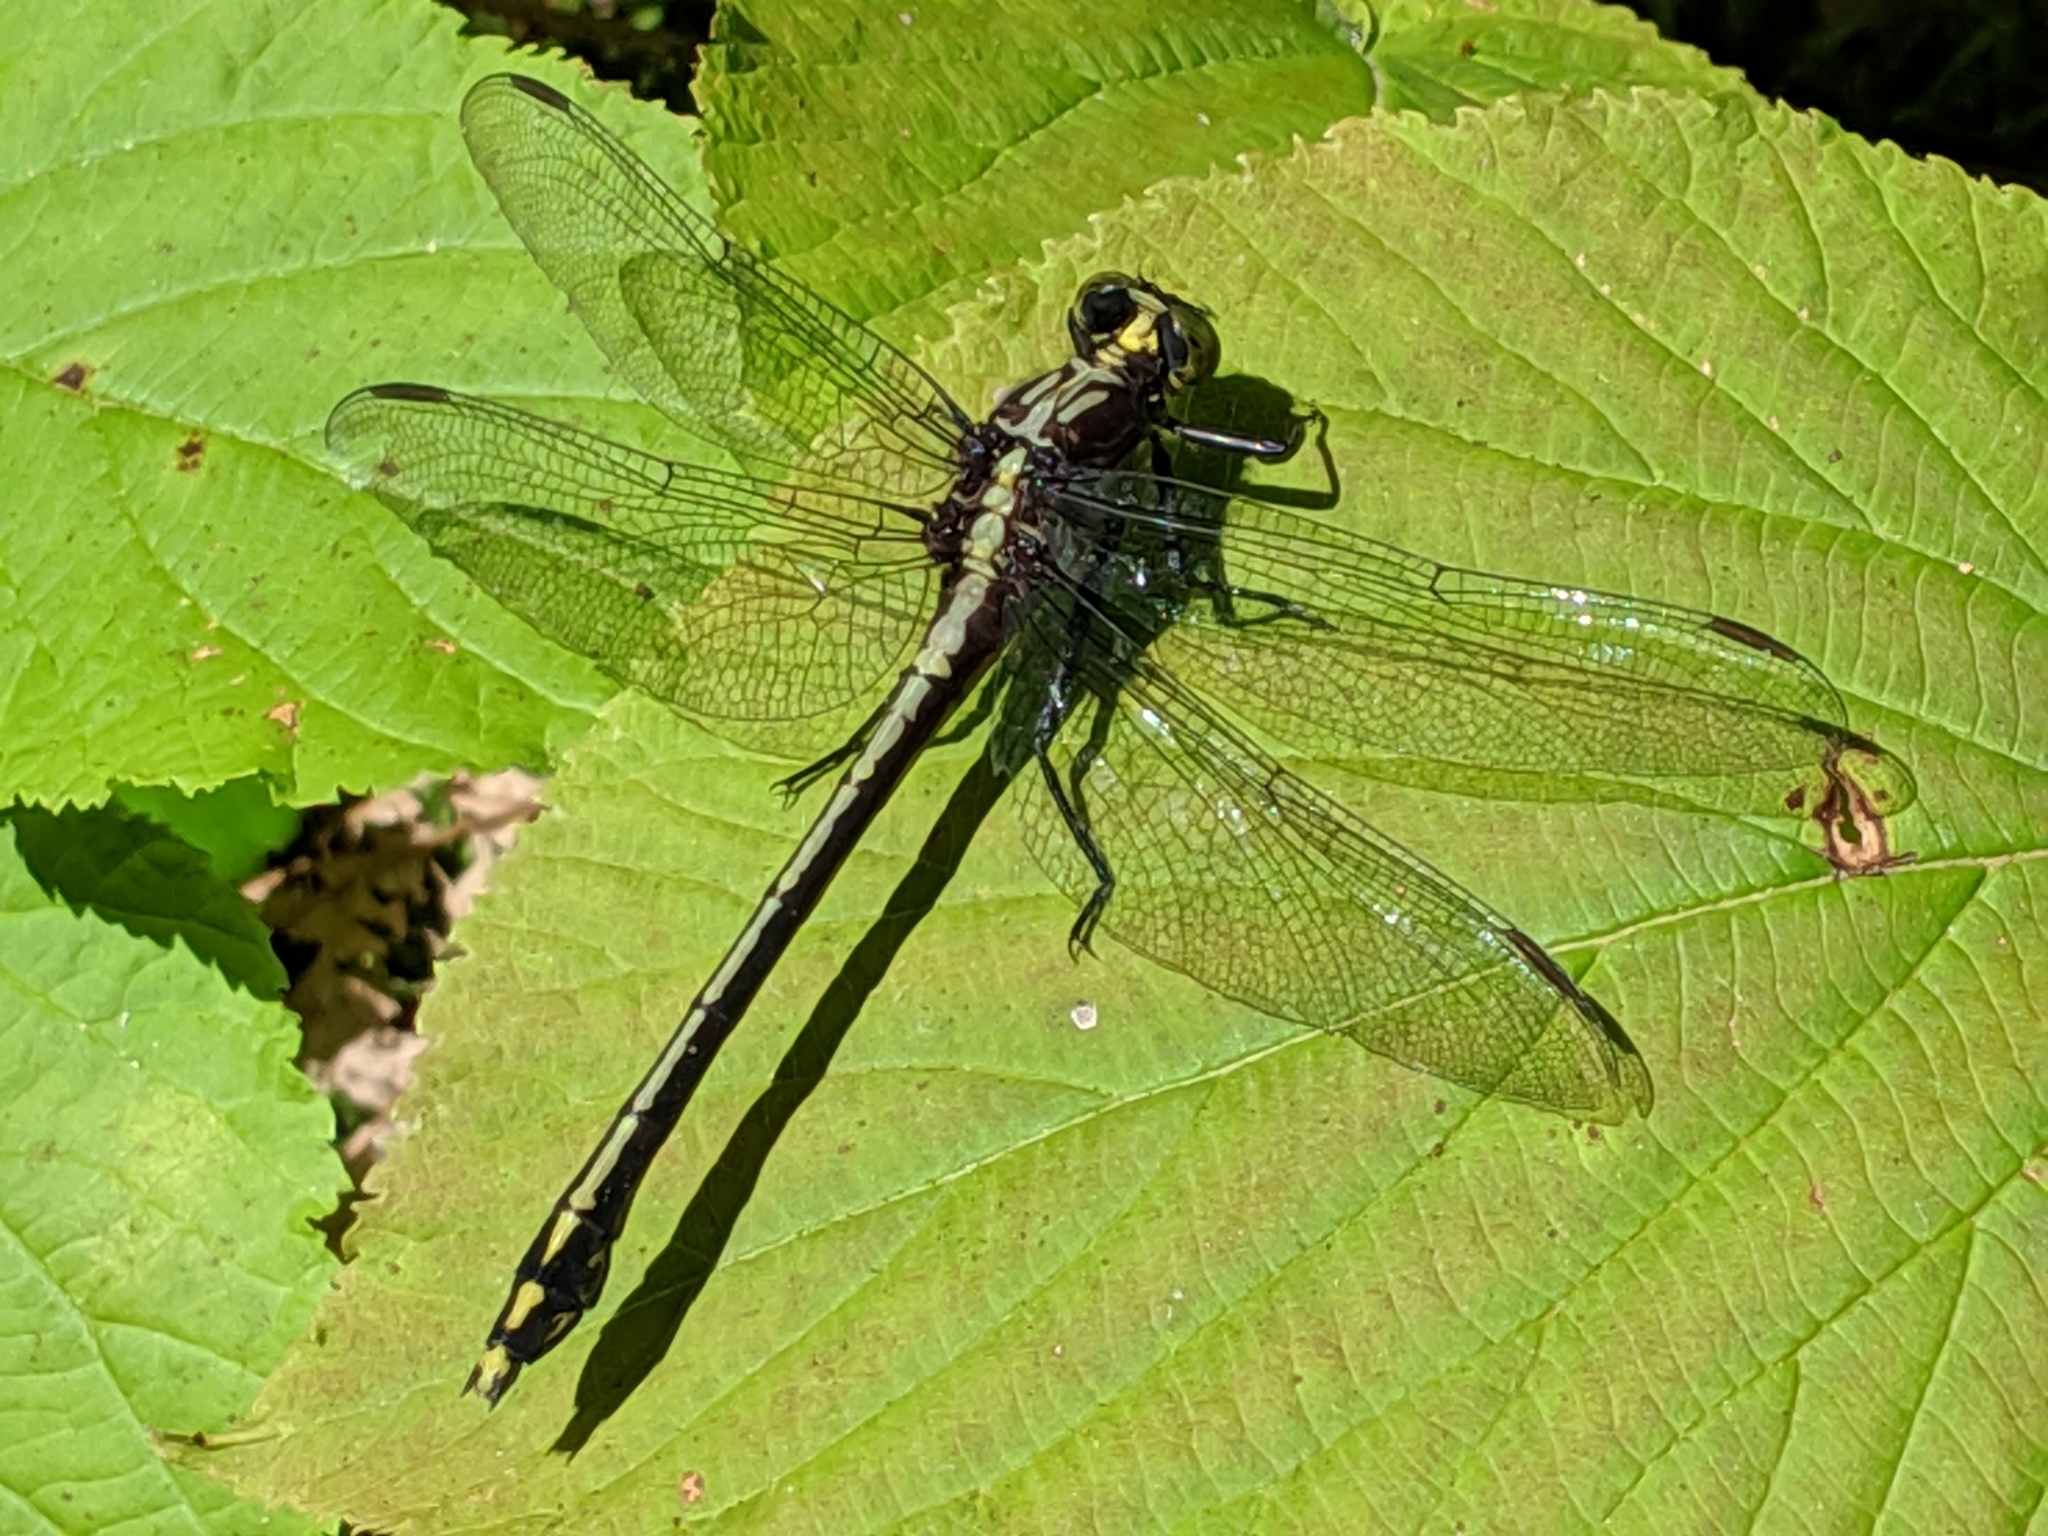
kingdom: Animalia
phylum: Arthropoda
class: Insecta
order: Odonata
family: Gomphidae
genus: Dromogomphus
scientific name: Dromogomphus spinosus
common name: Black-shouldered spinyleg
